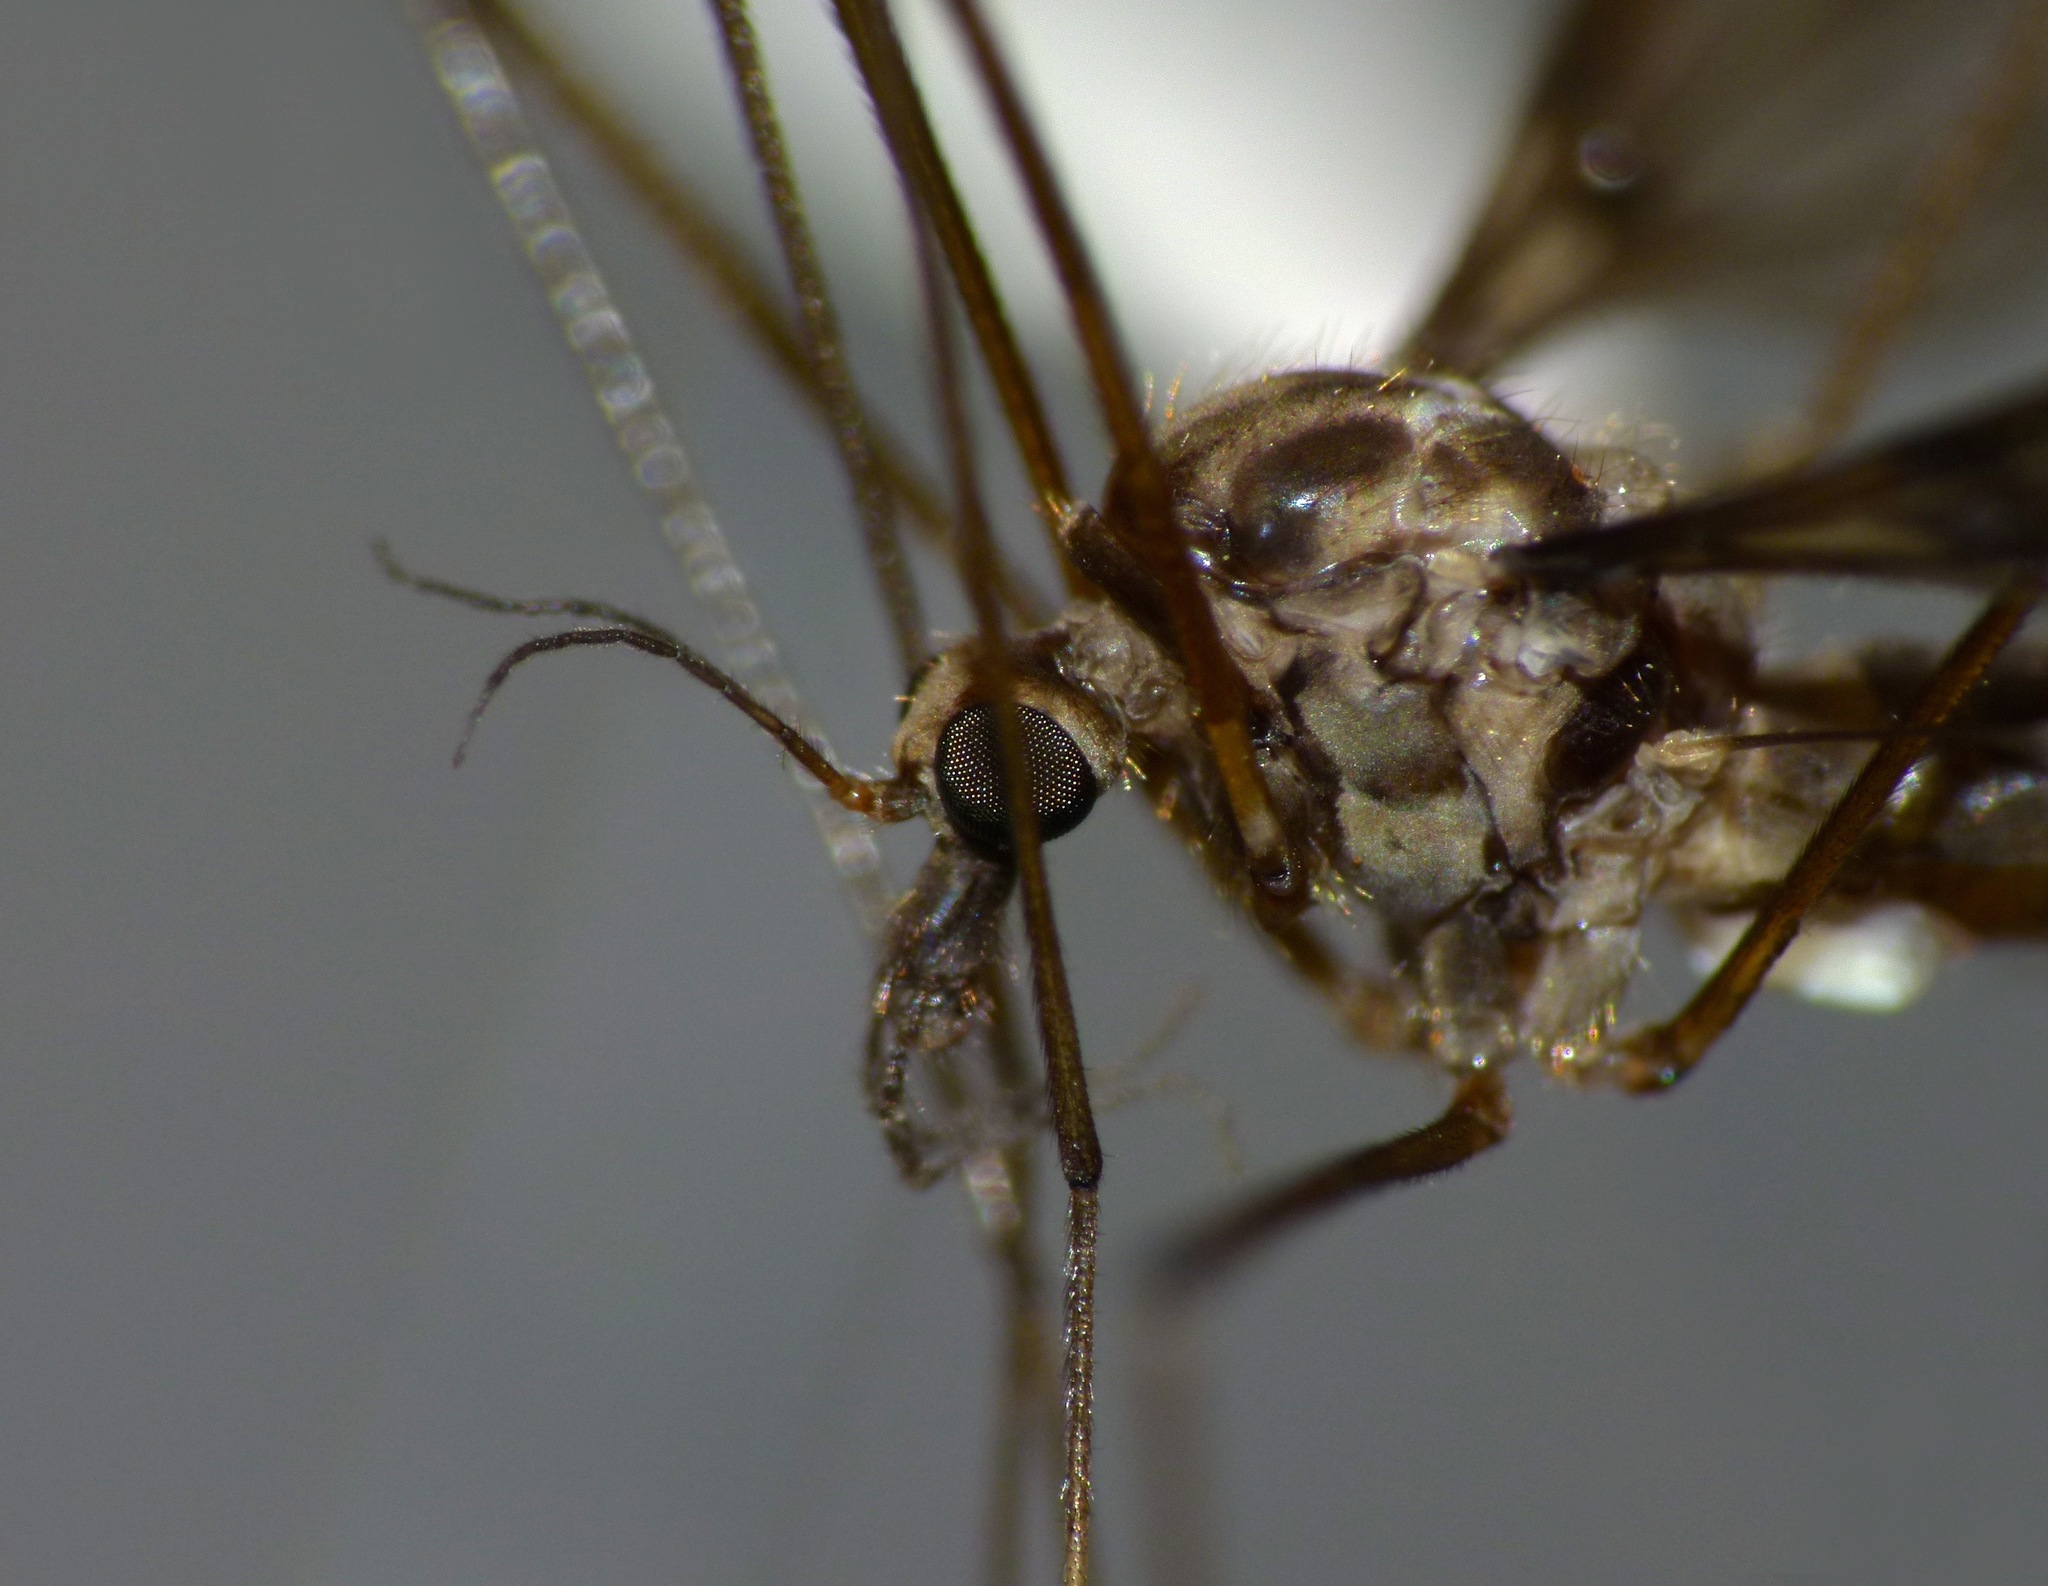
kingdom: Animalia
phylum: Arthropoda
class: Insecta
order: Diptera
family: Tipulidae
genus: Leptotarsus
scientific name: Leptotarsus cubitalis
